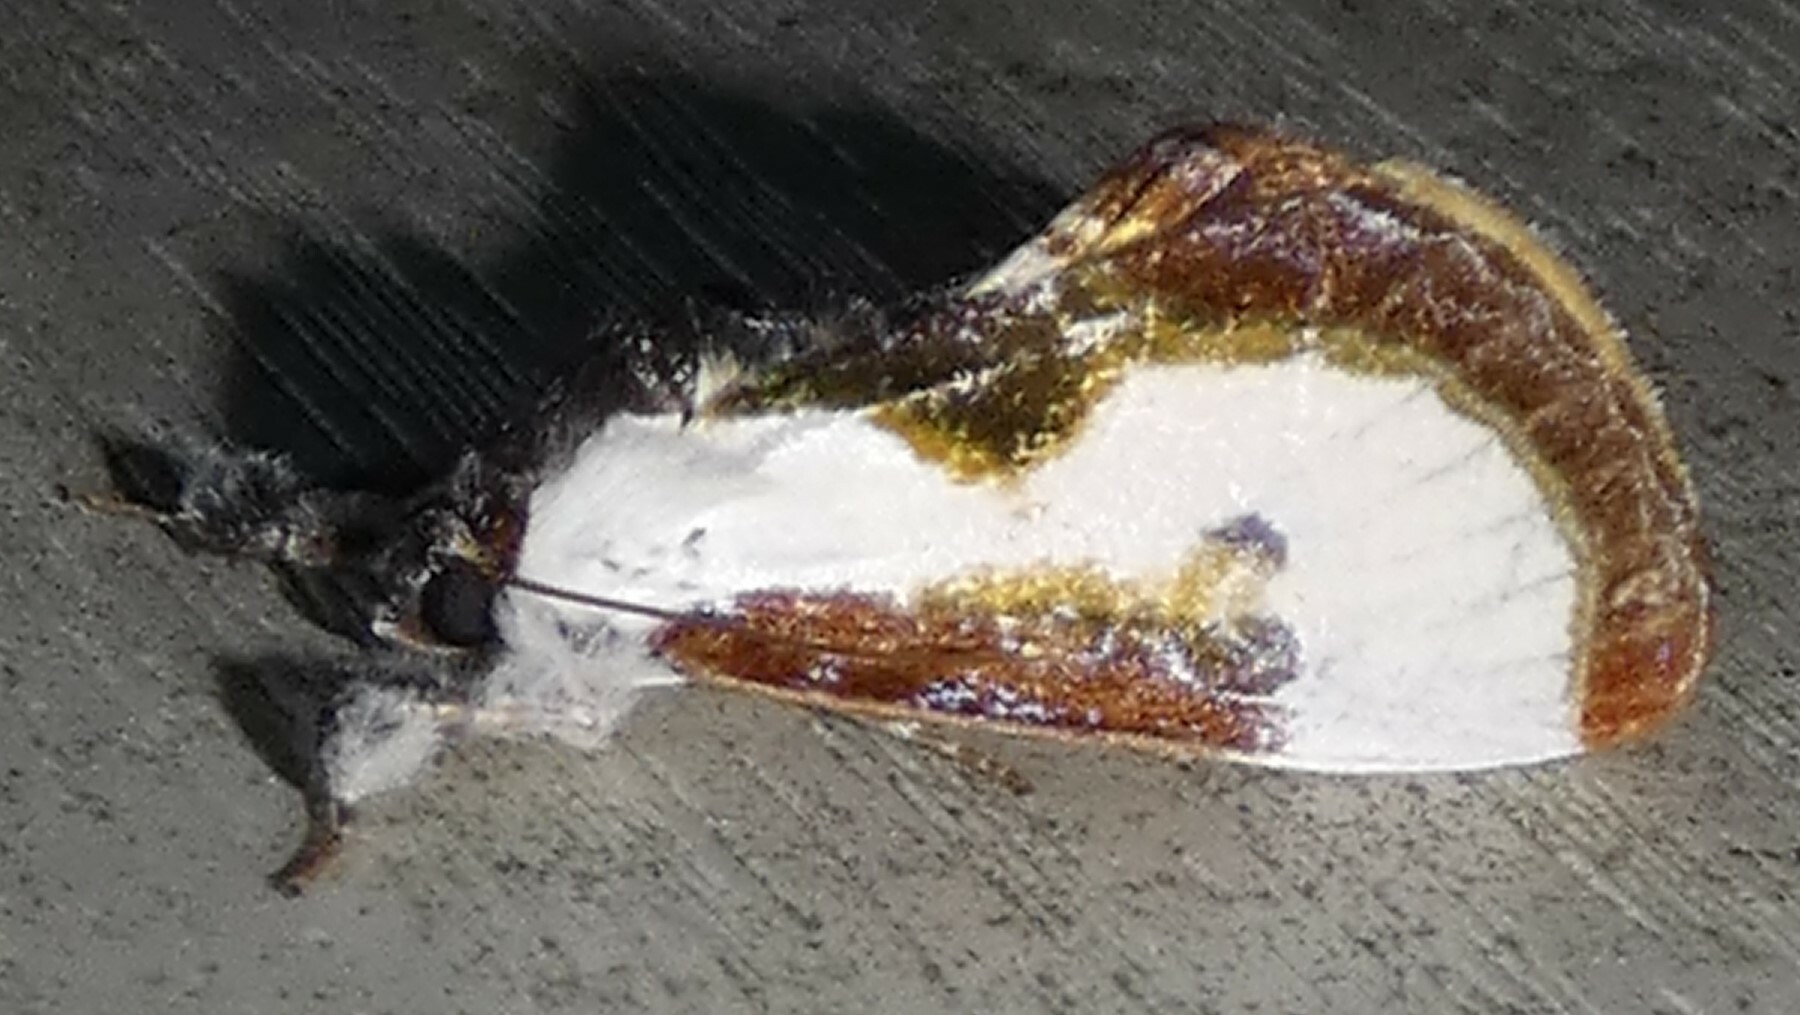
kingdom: Animalia
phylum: Arthropoda
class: Insecta
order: Lepidoptera
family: Noctuidae
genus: Eudryas
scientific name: Eudryas grata
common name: Beautiful wood-nymph
